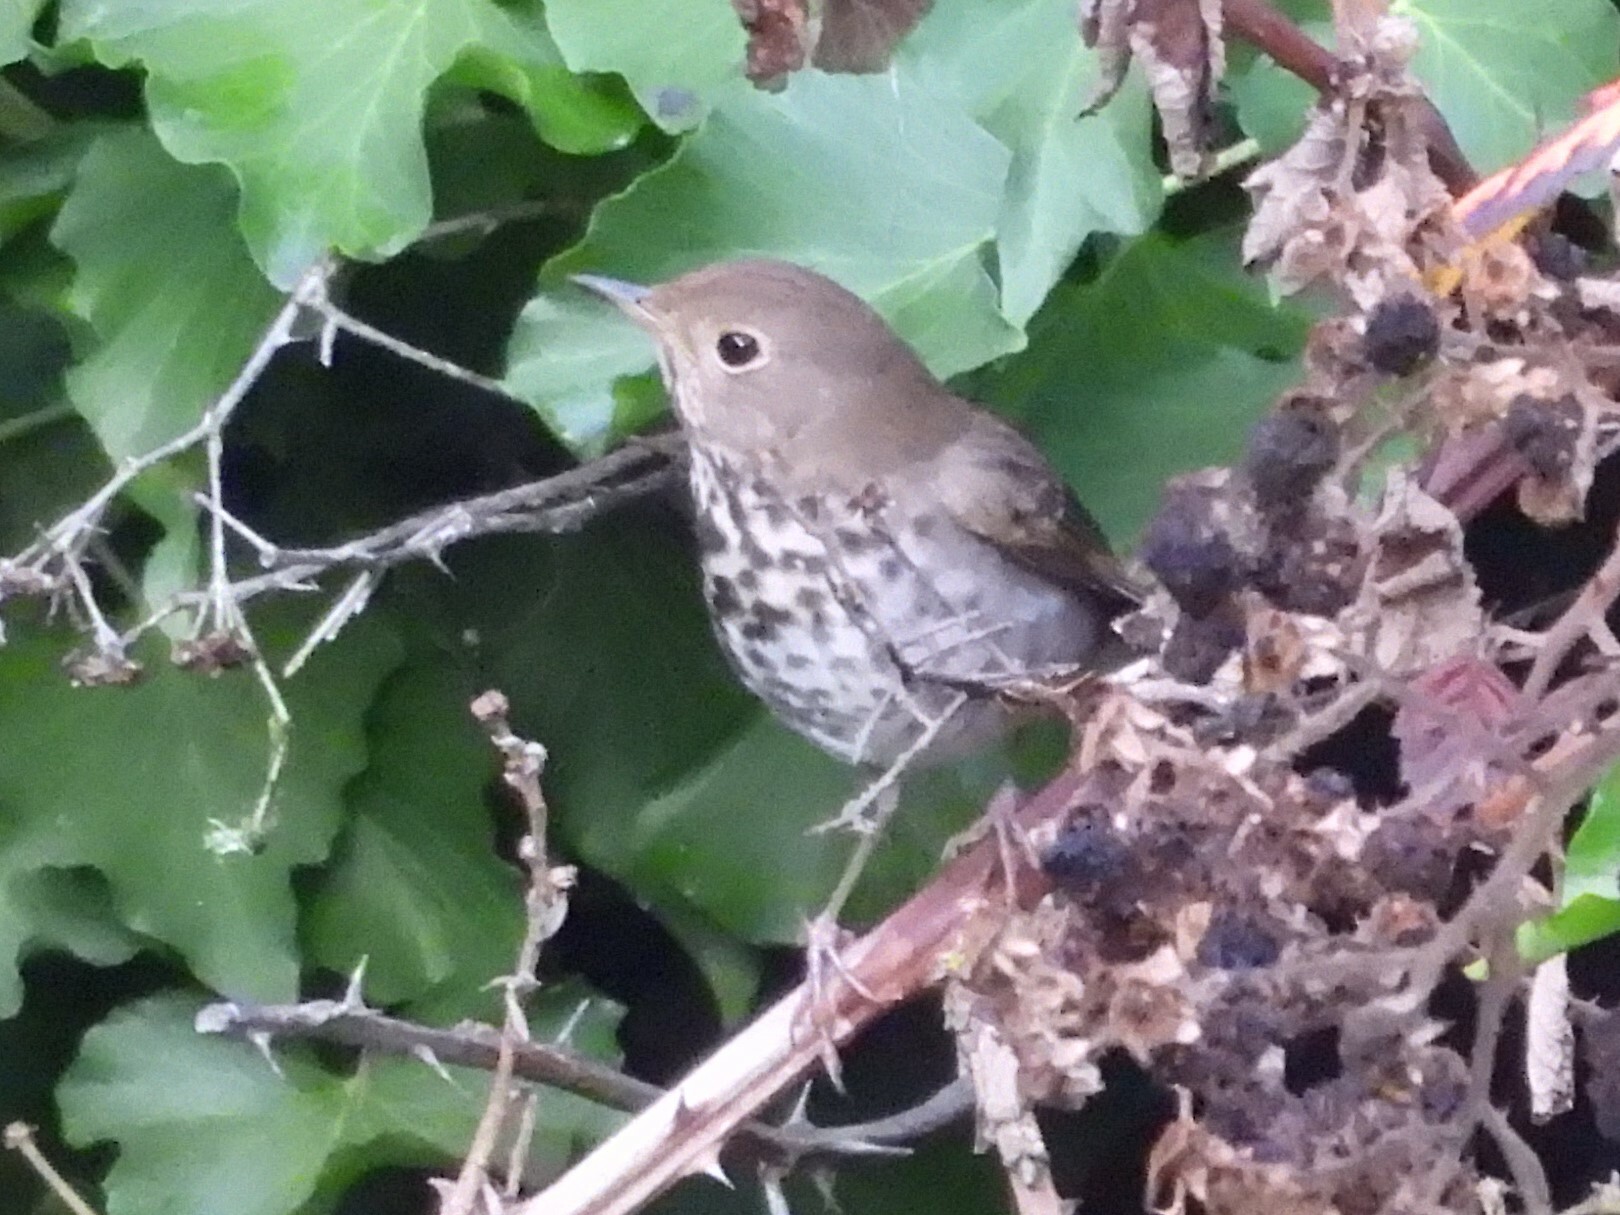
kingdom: Animalia
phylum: Chordata
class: Aves
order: Passeriformes
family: Turdidae
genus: Catharus
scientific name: Catharus guttatus
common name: Hermit thrush
